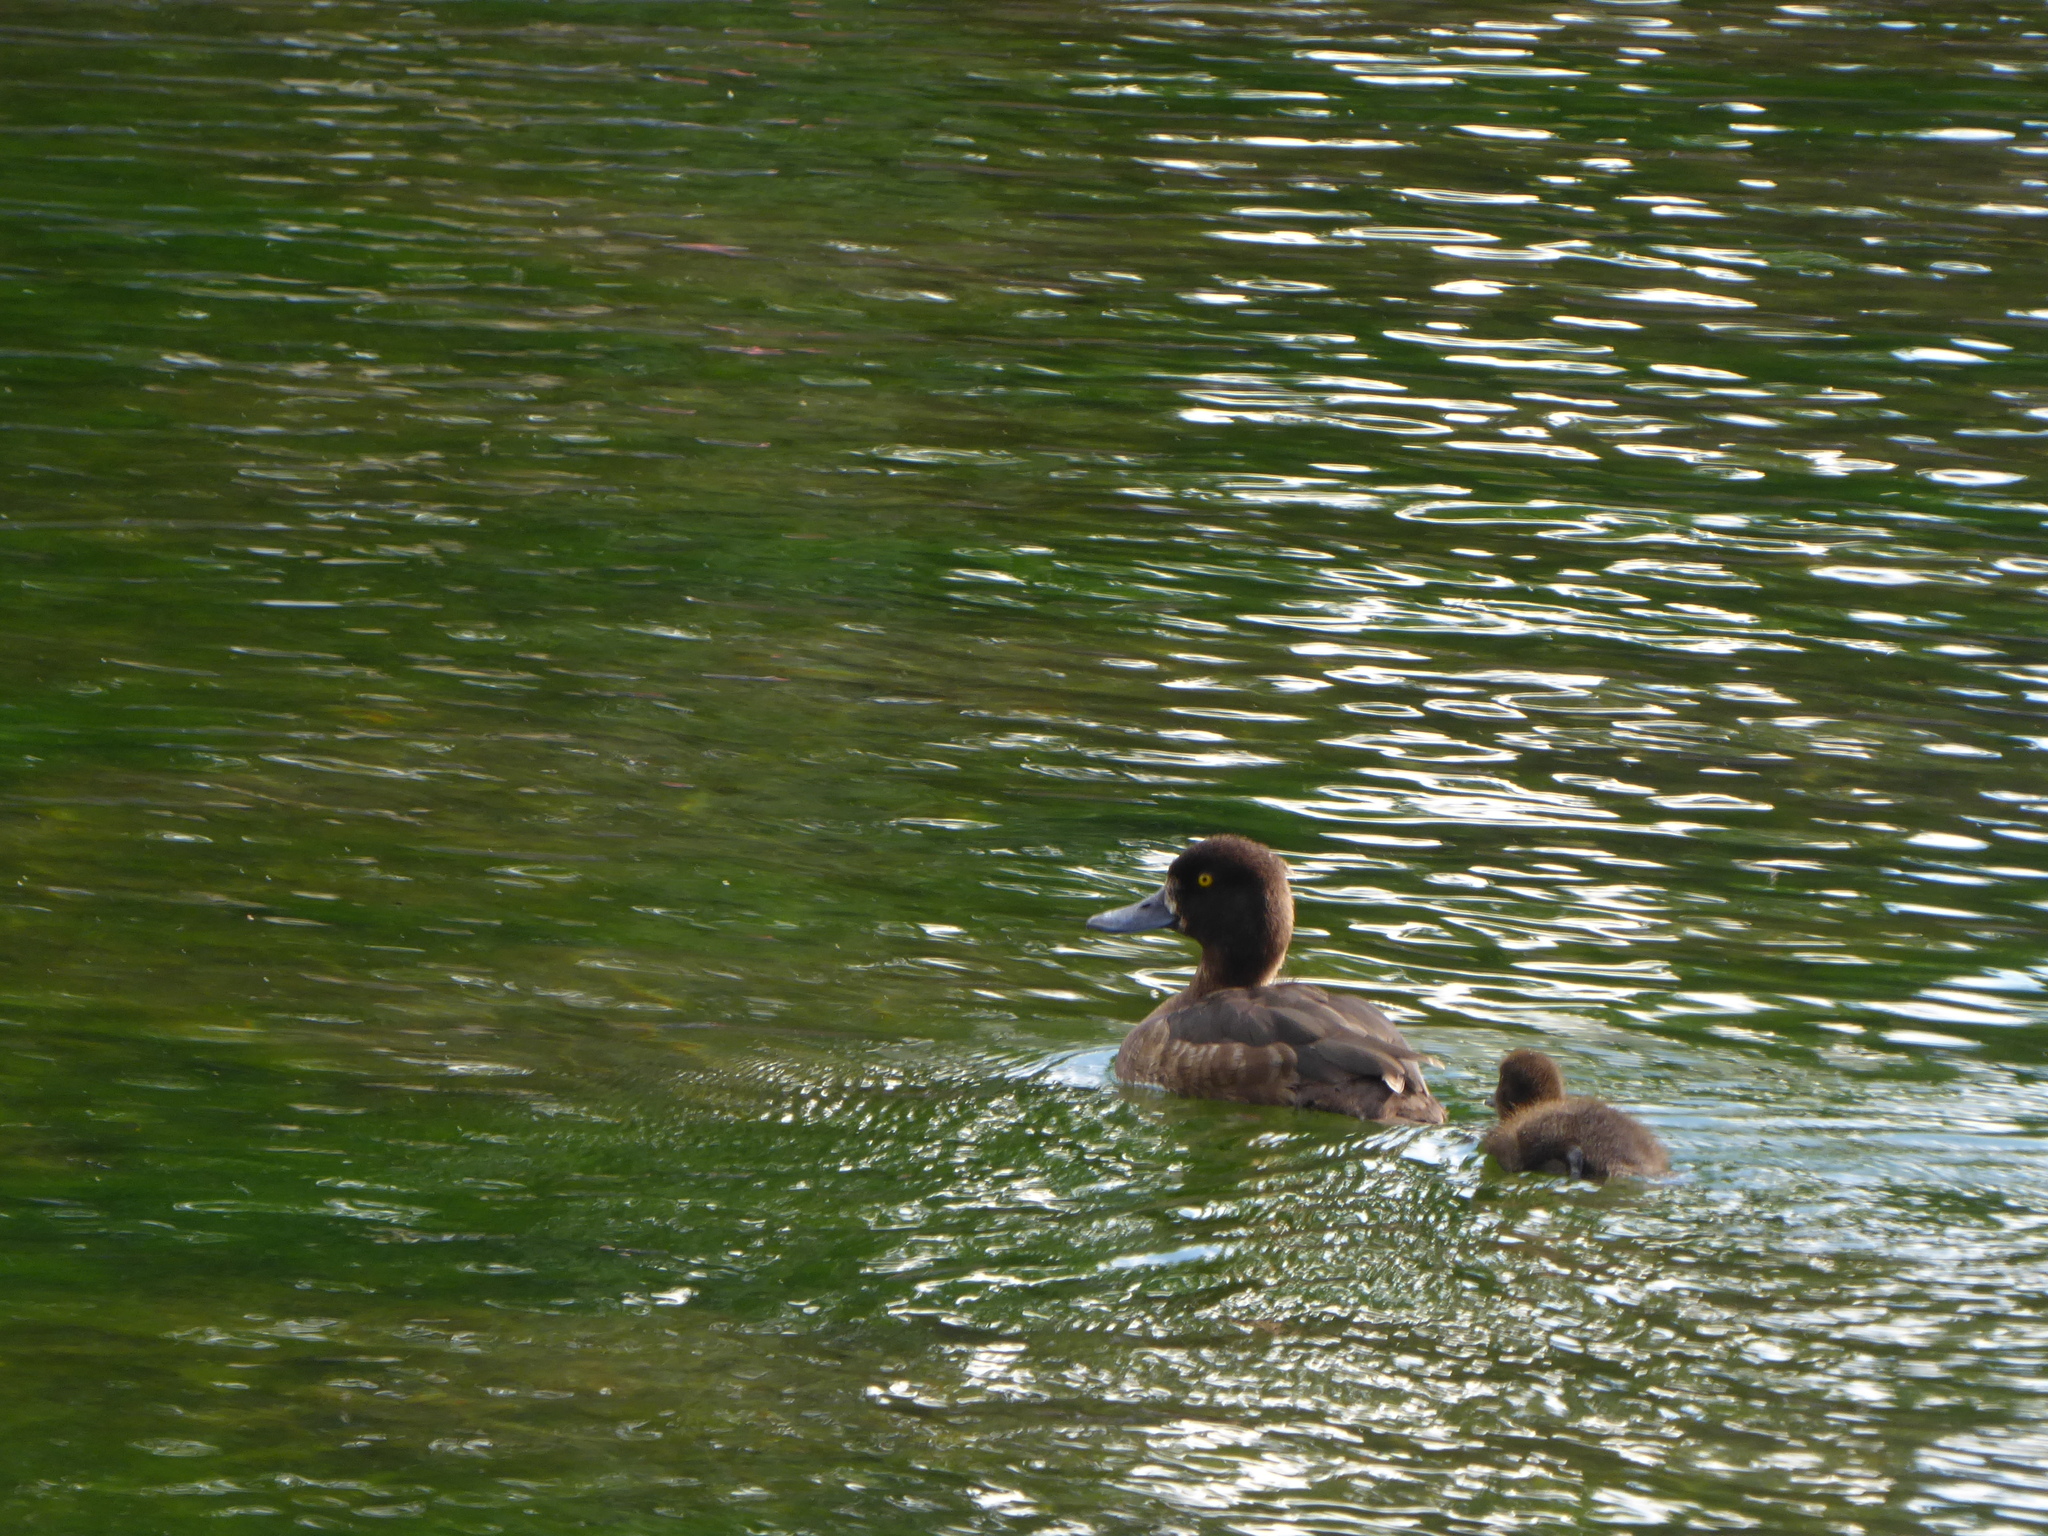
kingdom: Animalia
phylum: Chordata
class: Aves
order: Anseriformes
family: Anatidae
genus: Aythya
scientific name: Aythya fuligula
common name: Tufted duck
